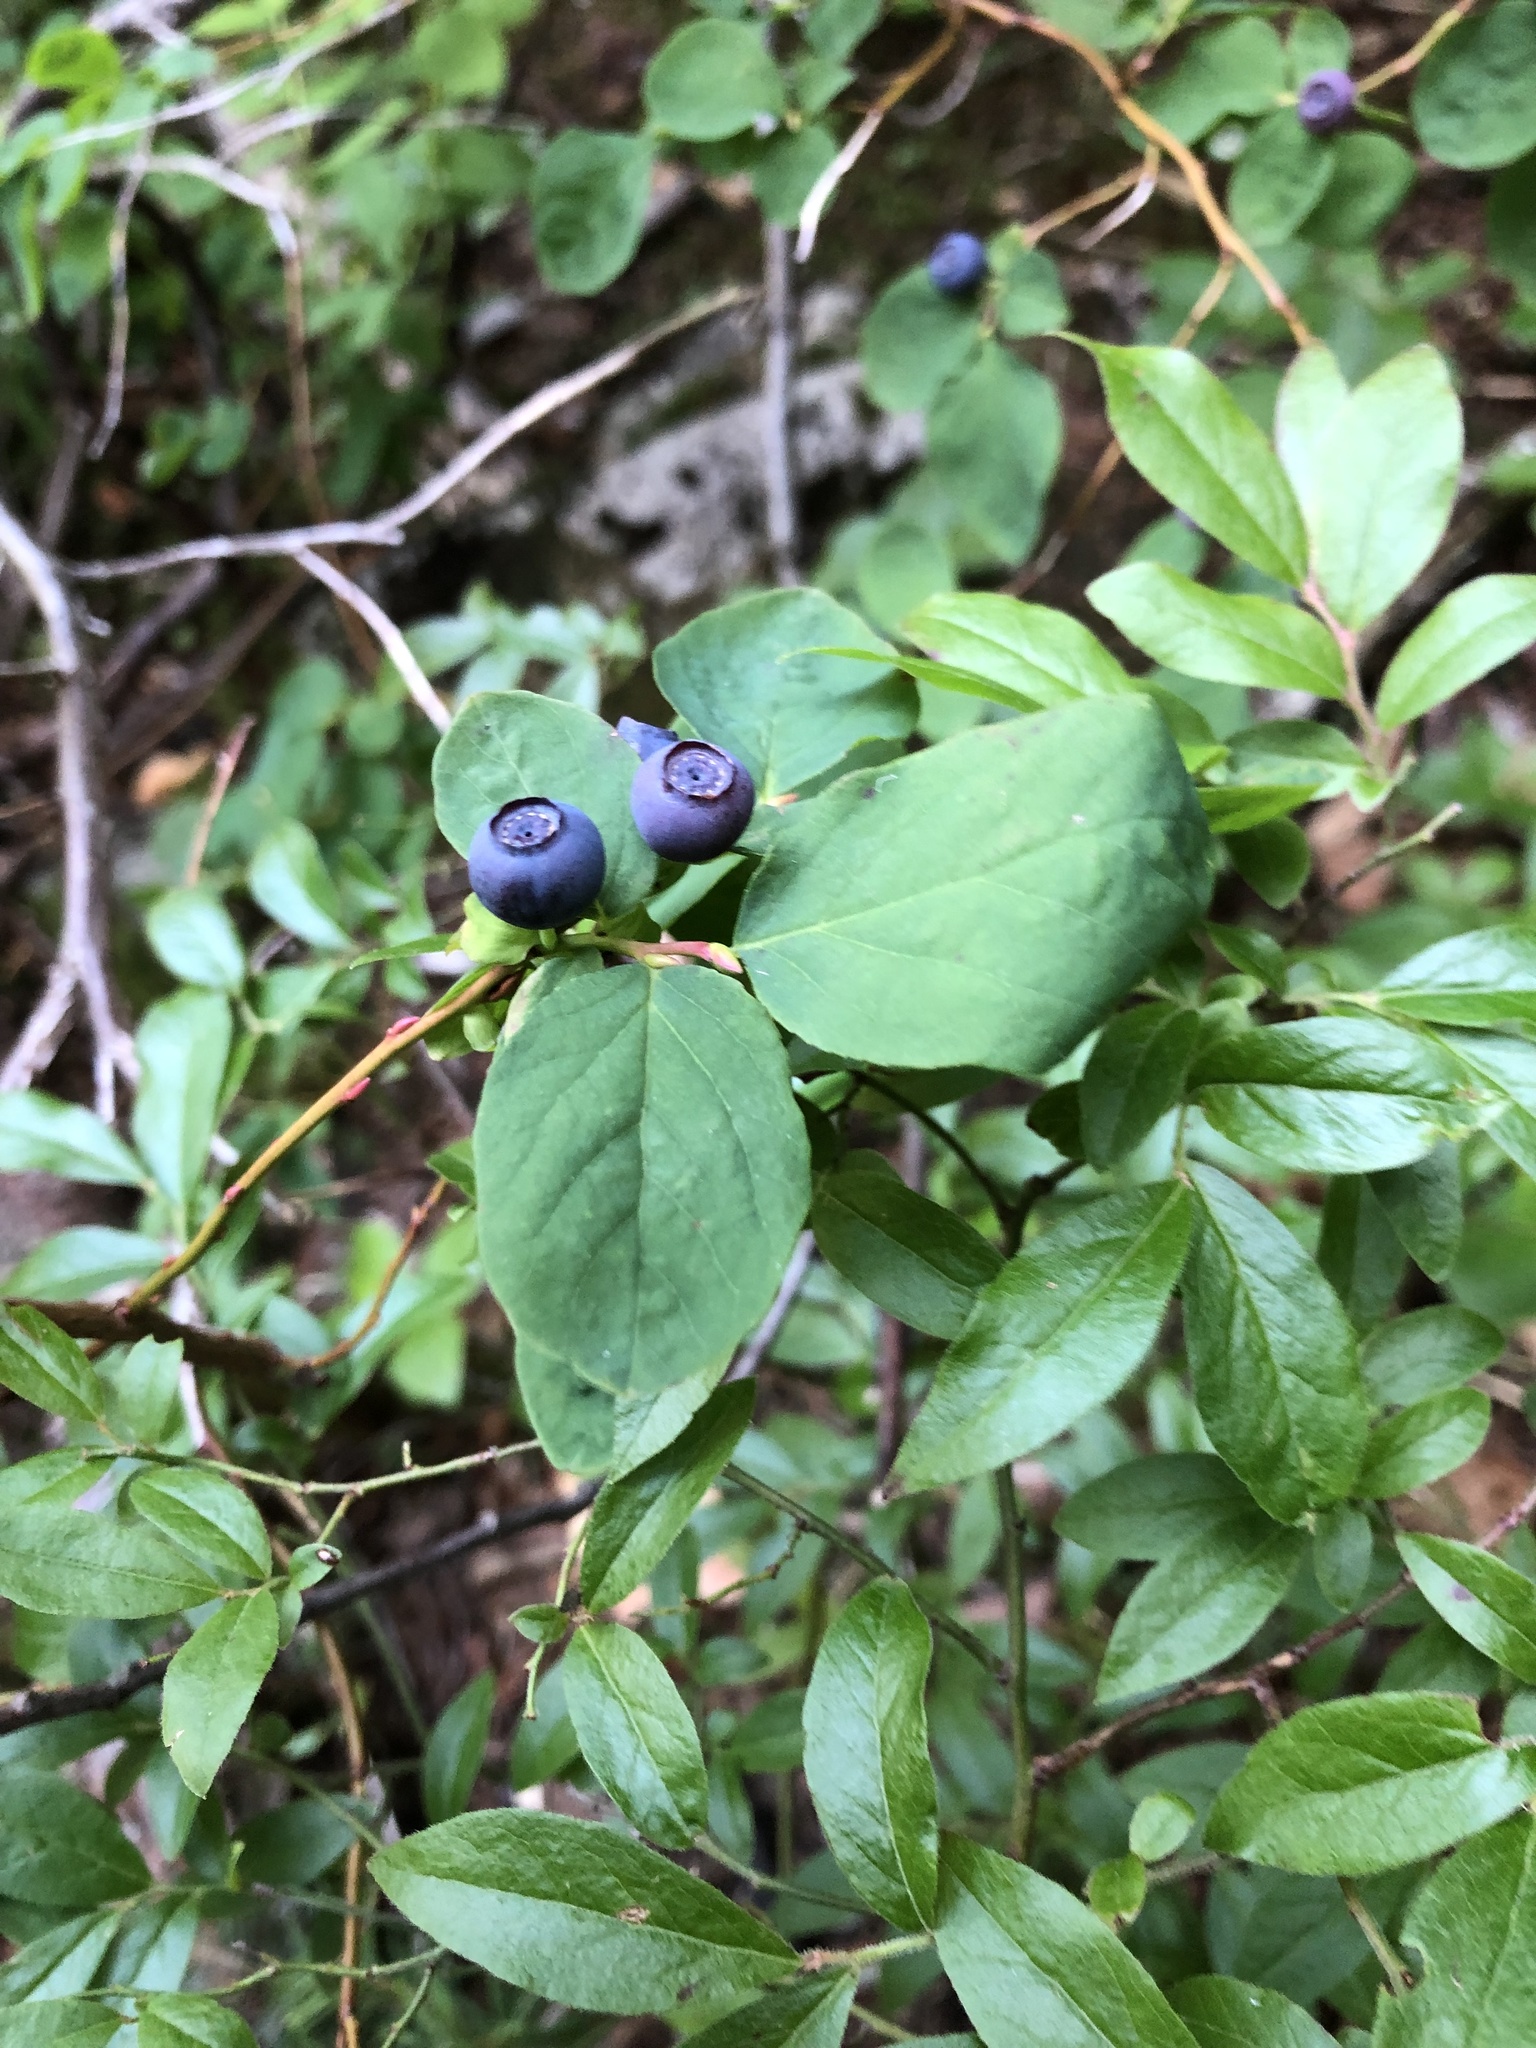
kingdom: Plantae
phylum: Tracheophyta
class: Magnoliopsida
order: Ericales
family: Ericaceae
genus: Vaccinium
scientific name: Vaccinium ovalifolium
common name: Early blueberry
